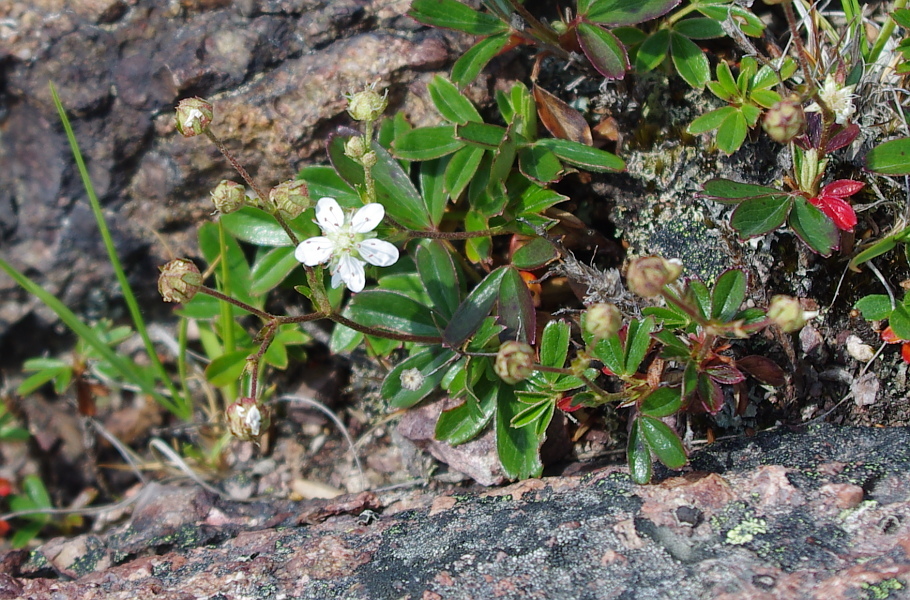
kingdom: Plantae
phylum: Tracheophyta
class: Magnoliopsida
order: Rosales
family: Rosaceae
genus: Sibbaldia
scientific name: Sibbaldia tridentata
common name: Three-toothed cinquefoil
